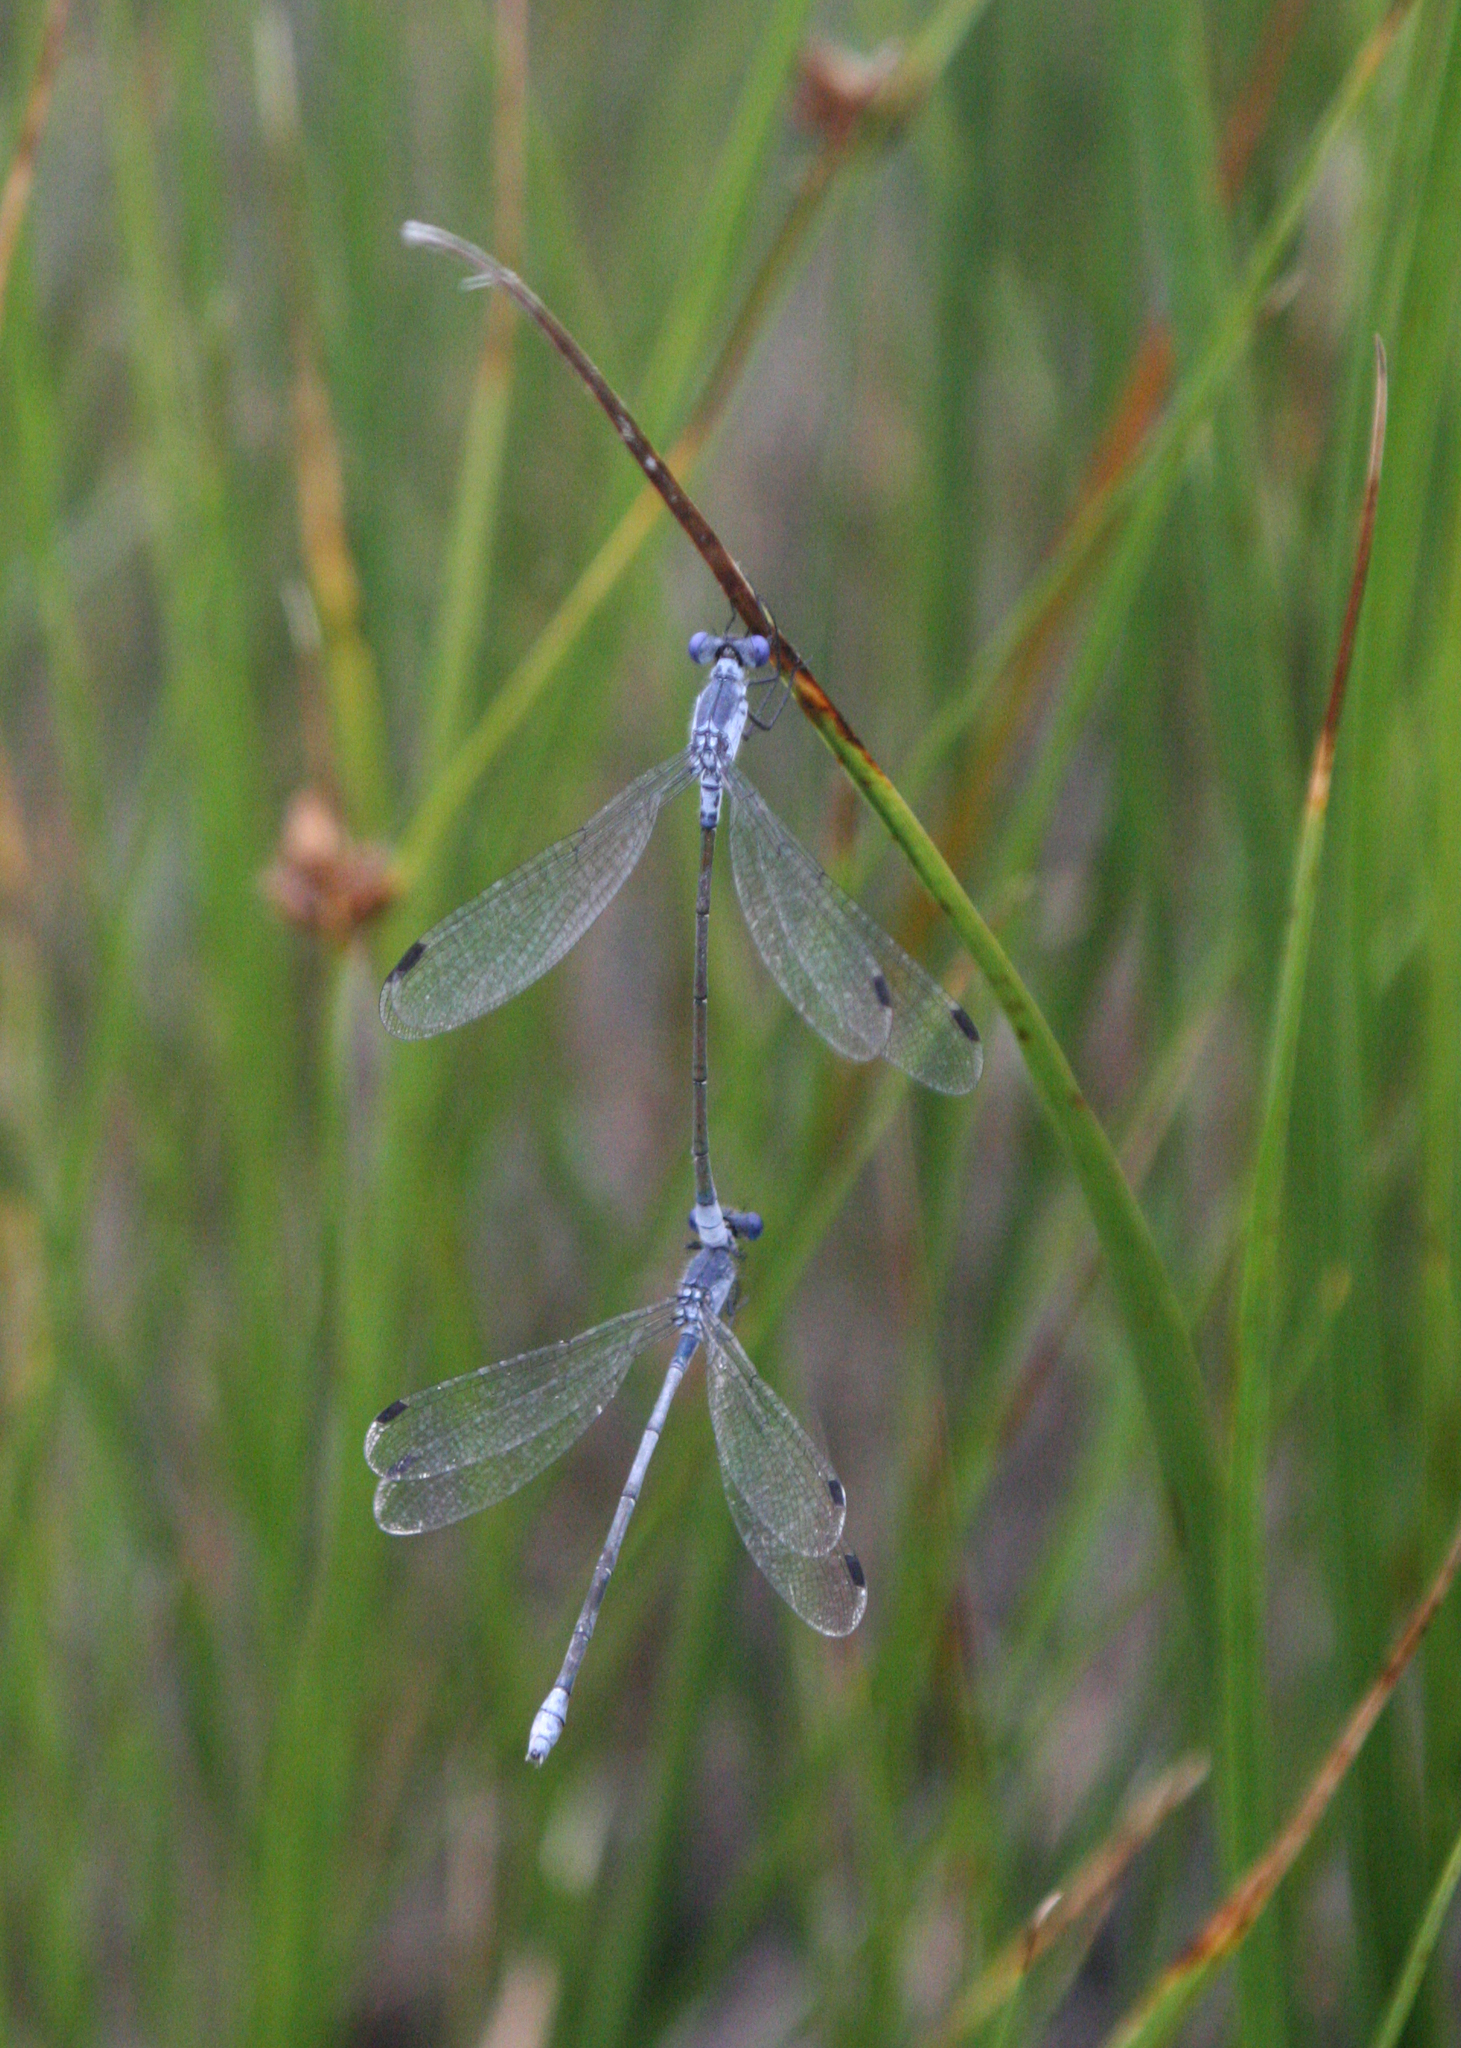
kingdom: Animalia
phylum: Arthropoda
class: Insecta
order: Odonata
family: Lestidae
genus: Lestes
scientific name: Lestes macrostigma
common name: Dark spreadwing
